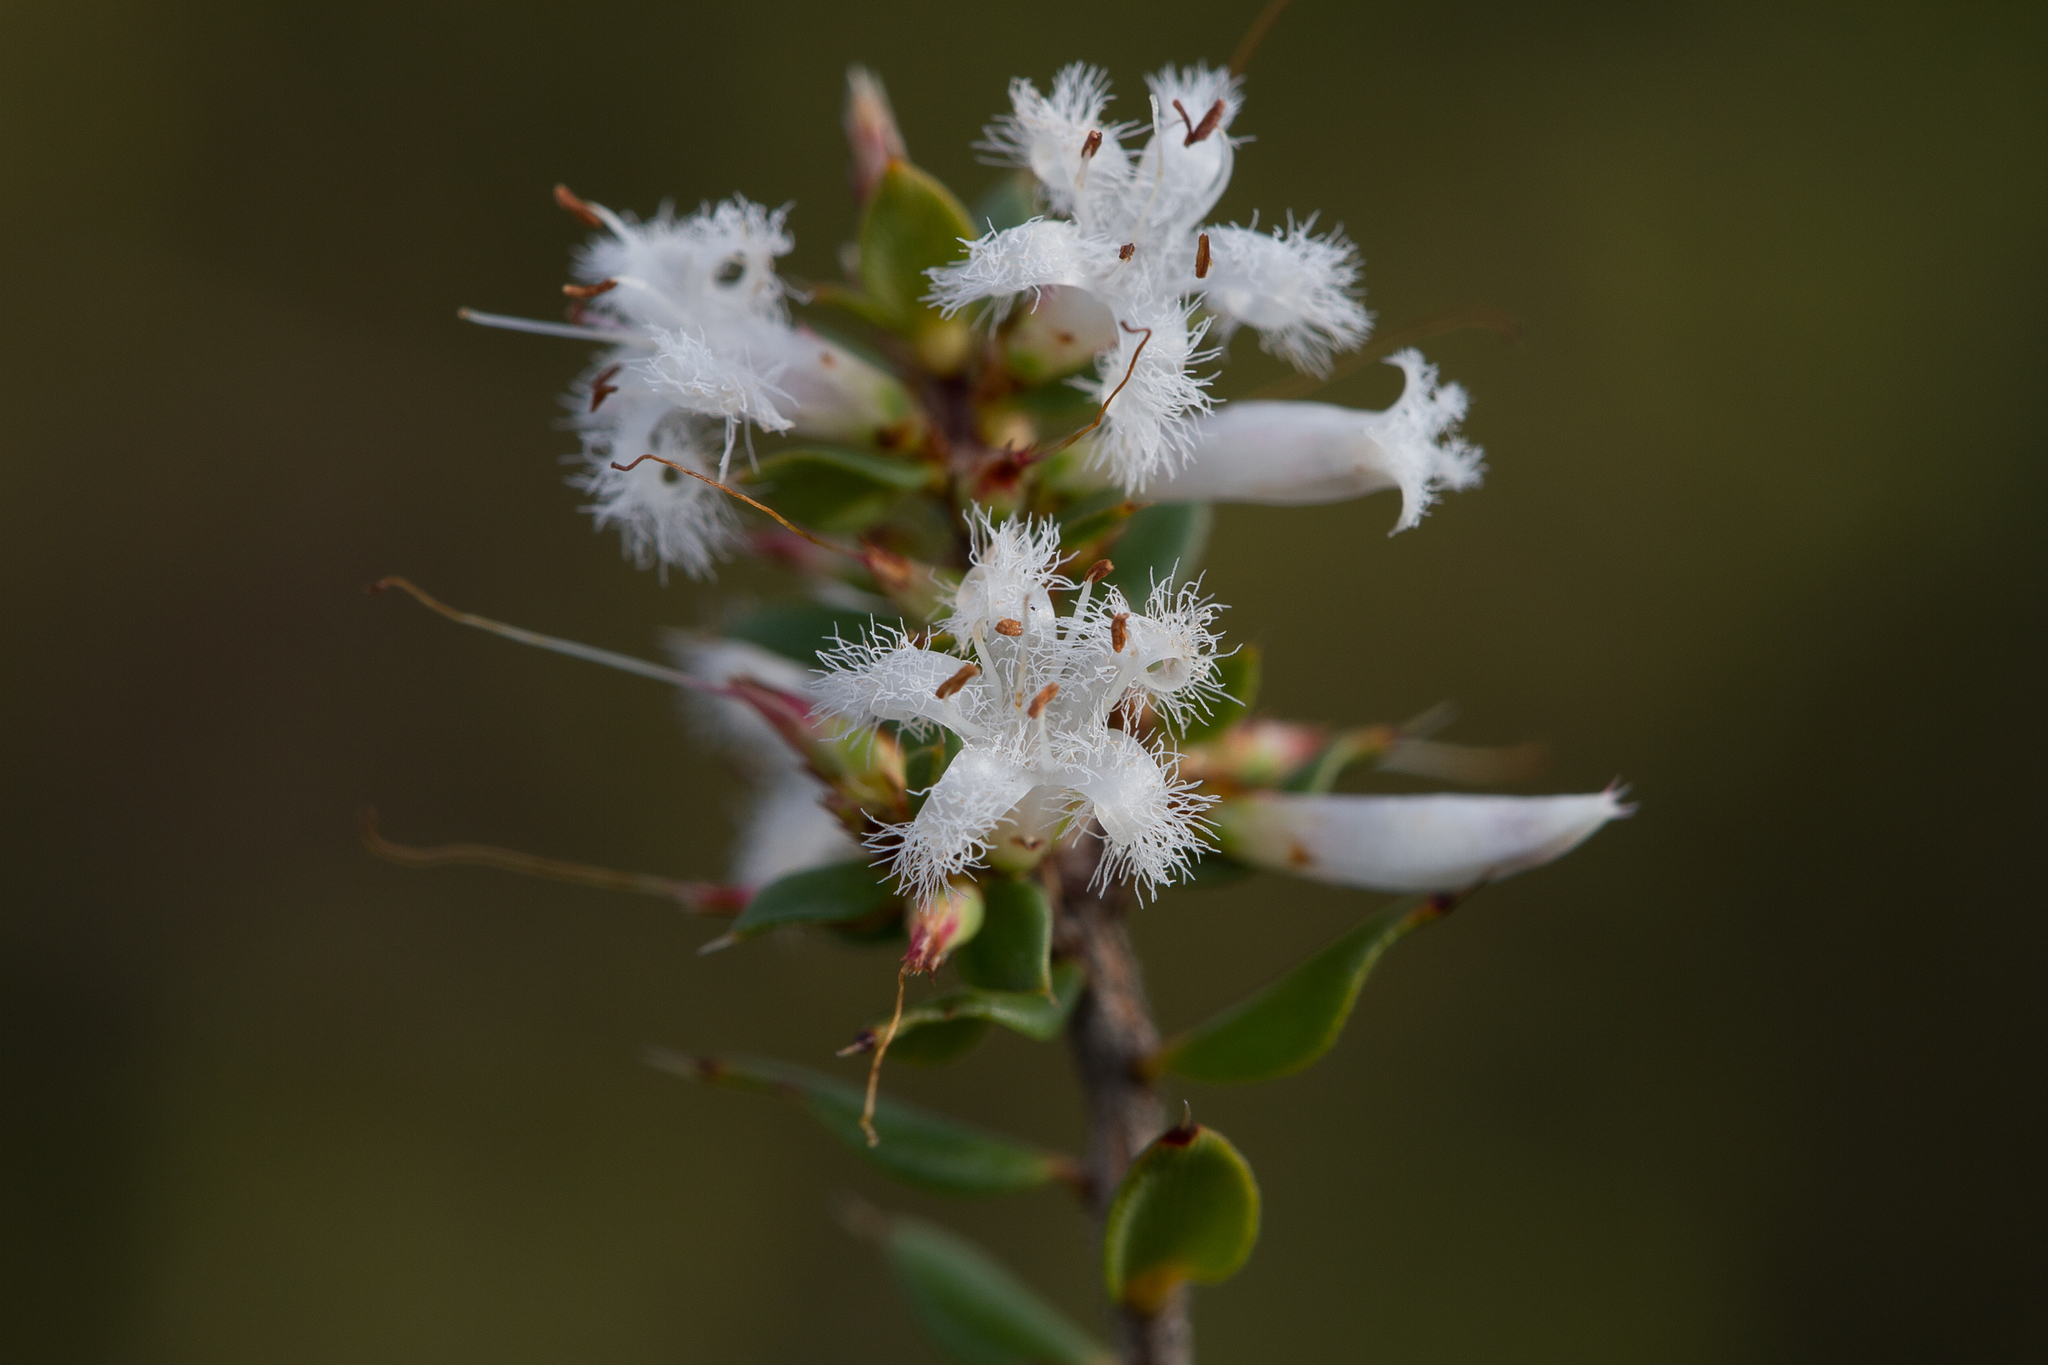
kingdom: Plantae
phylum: Tracheophyta
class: Magnoliopsida
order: Ericales
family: Ericaceae
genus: Styphelia
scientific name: Styphelia exarrhena
